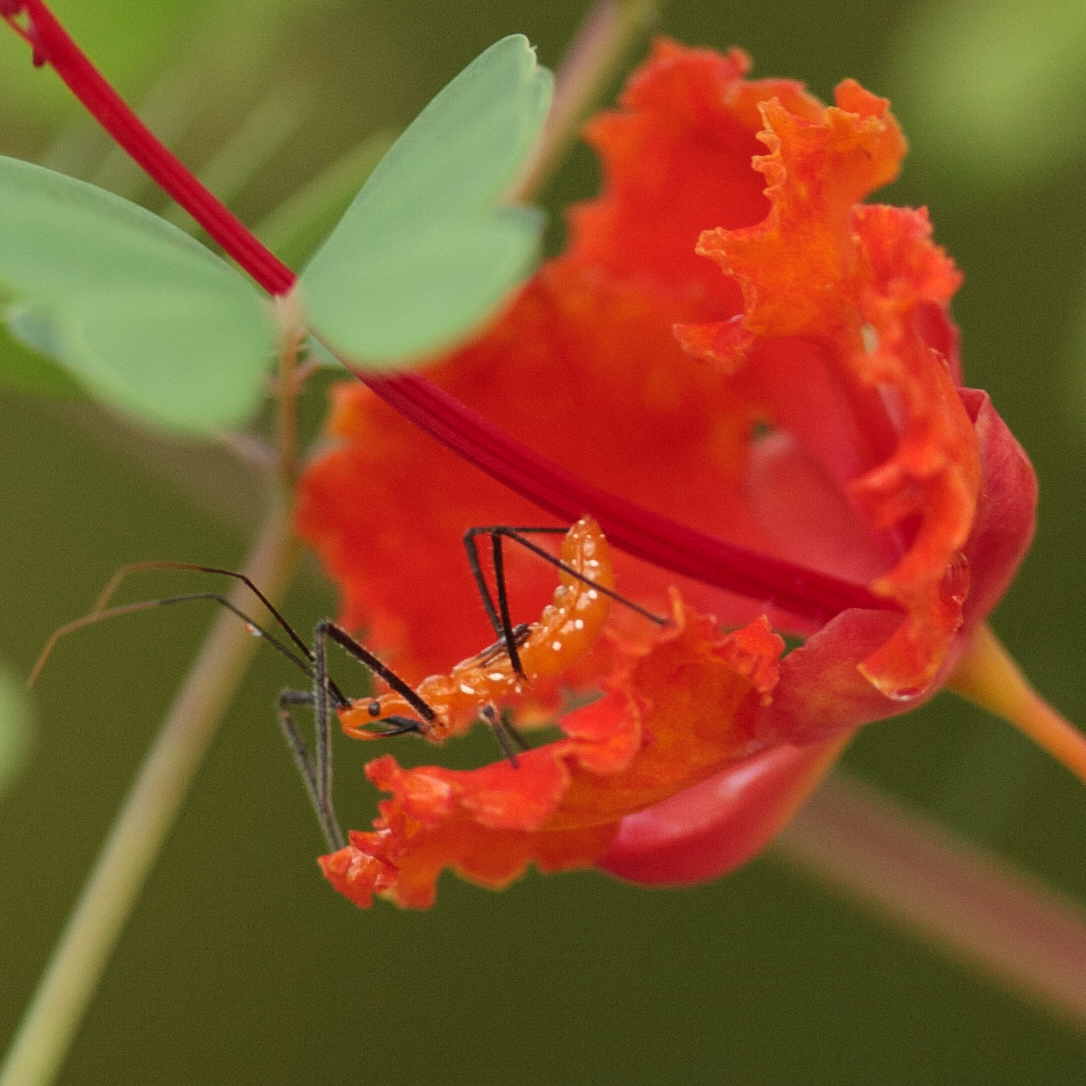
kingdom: Animalia
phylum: Arthropoda
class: Insecta
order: Hemiptera
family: Reduviidae
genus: Zelus
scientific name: Zelus longipes
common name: Milkweed assassin bug
